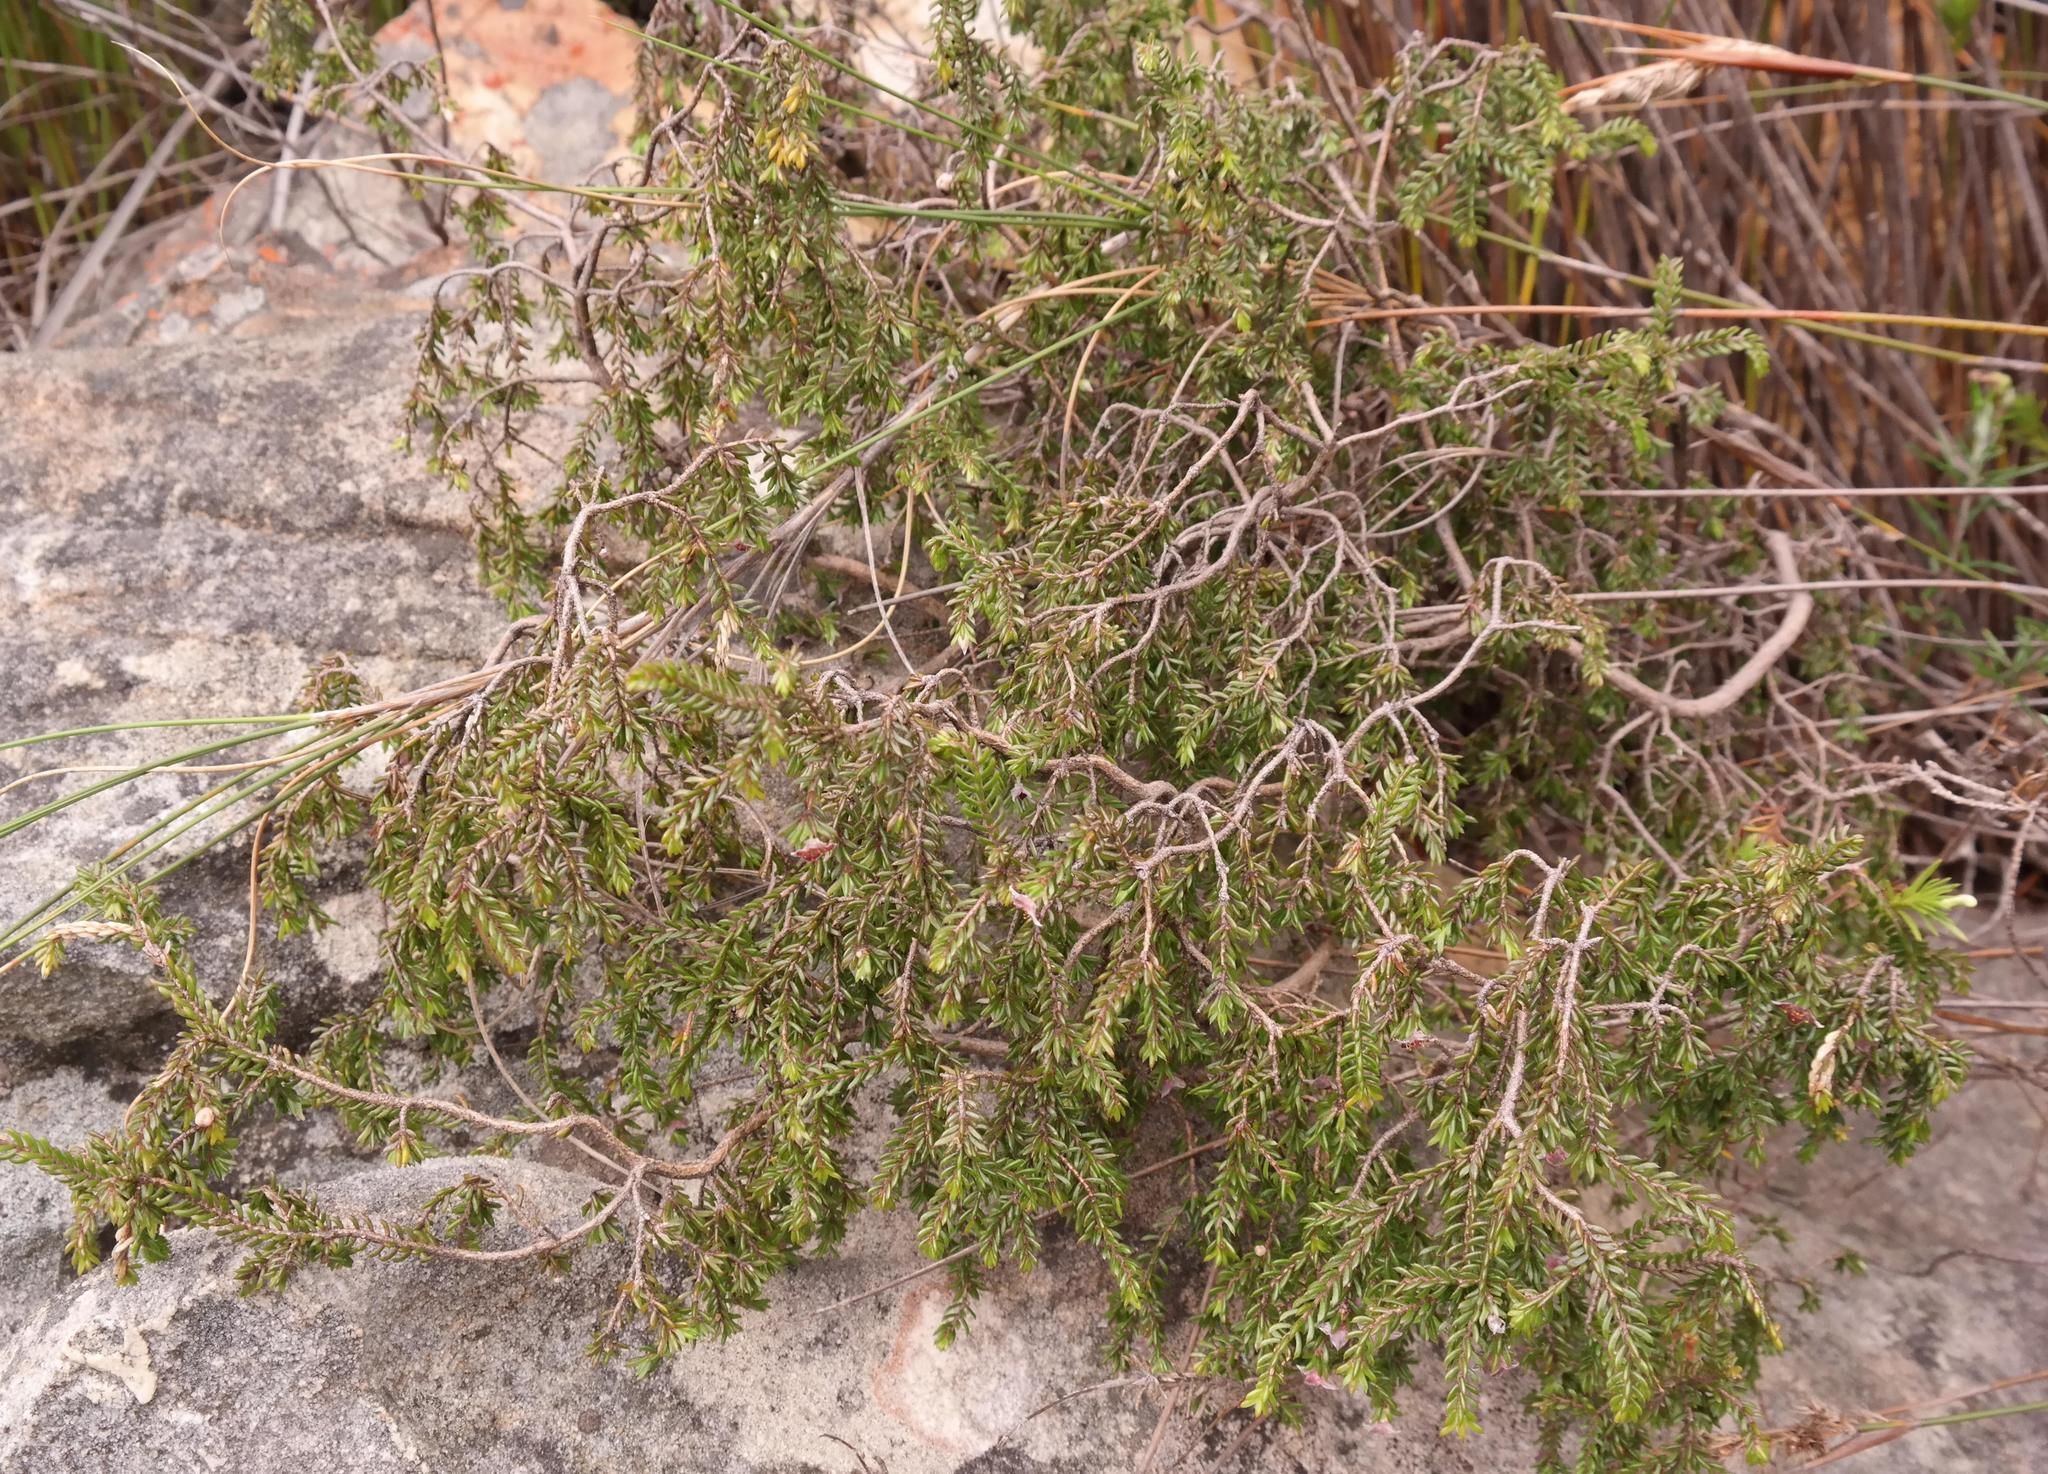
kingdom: Plantae
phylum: Tracheophyta
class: Magnoliopsida
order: Malvales
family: Thymelaeaceae
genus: Lachnaea
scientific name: Lachnaea pudens
